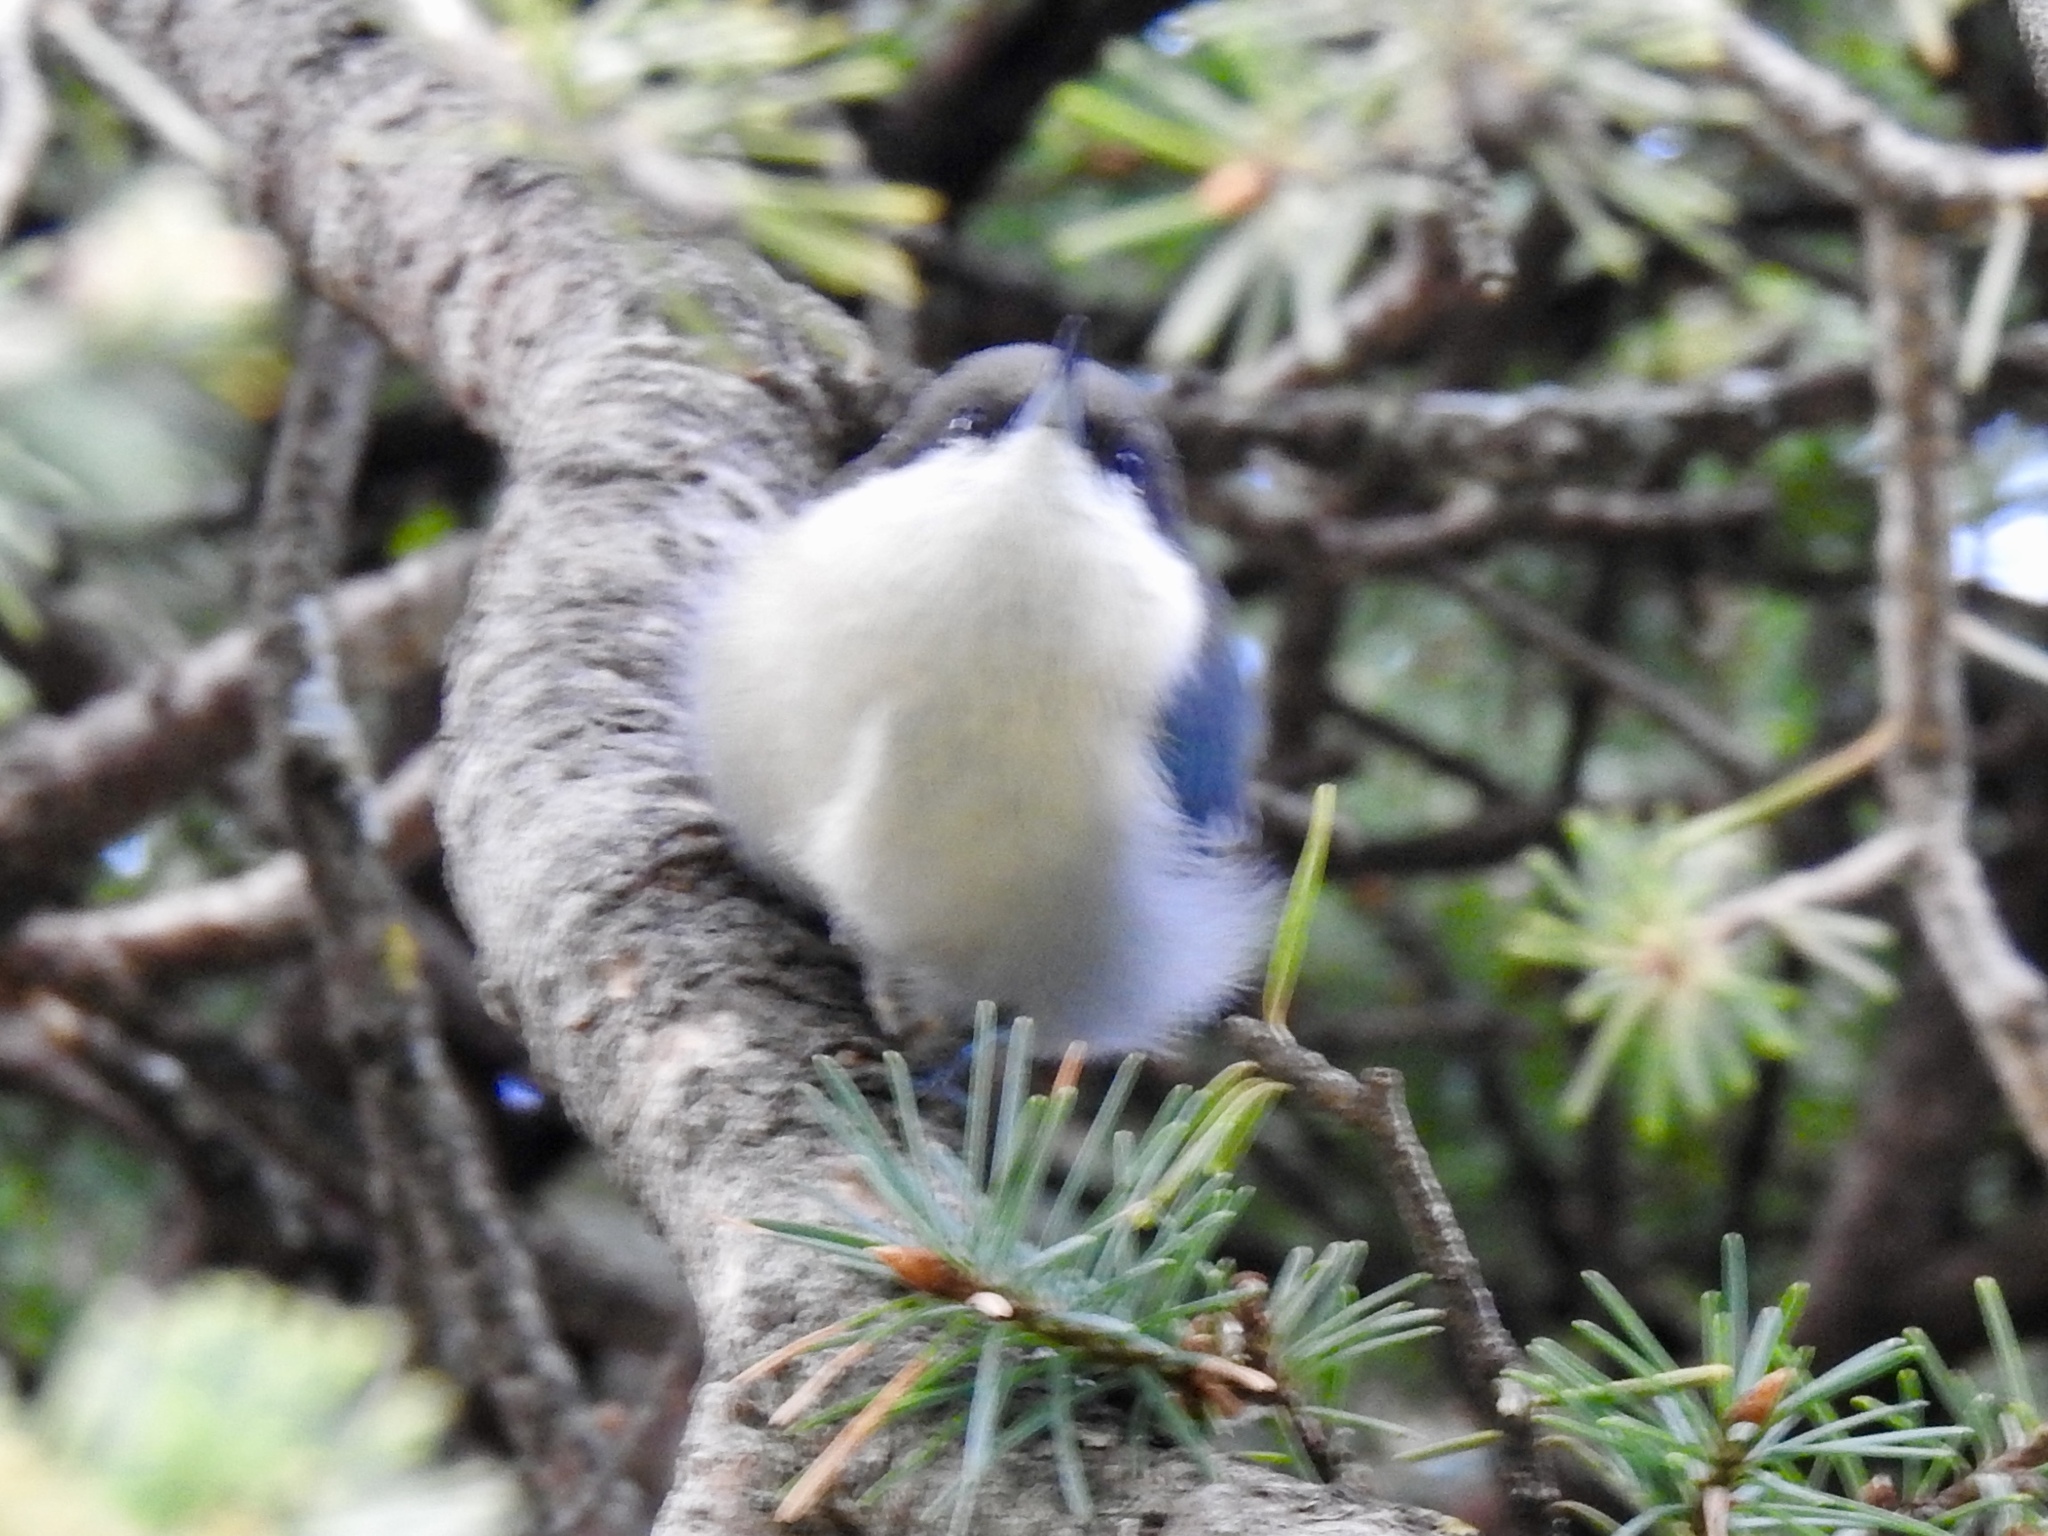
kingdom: Animalia
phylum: Chordata
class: Aves
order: Passeriformes
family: Sittidae
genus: Sitta
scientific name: Sitta pygmaea
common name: Pygmy nuthatch
